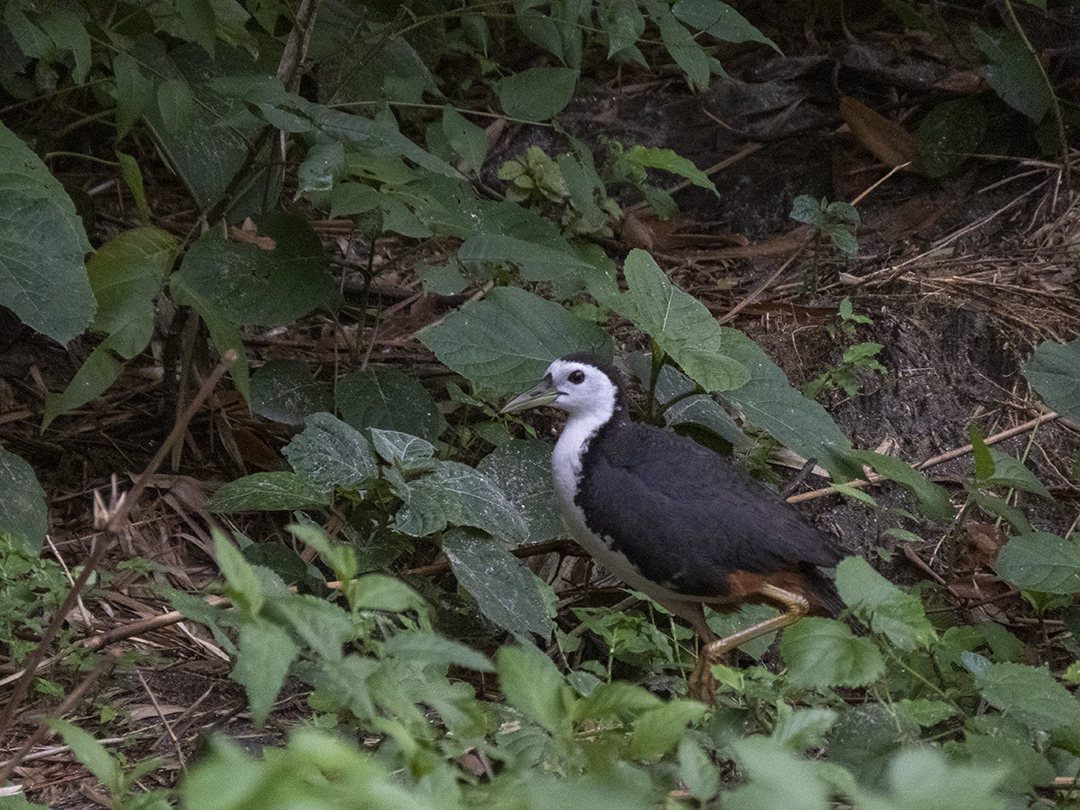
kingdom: Animalia
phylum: Chordata
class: Aves
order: Gruiformes
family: Rallidae
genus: Amaurornis
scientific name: Amaurornis phoenicurus
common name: White-breasted waterhen
